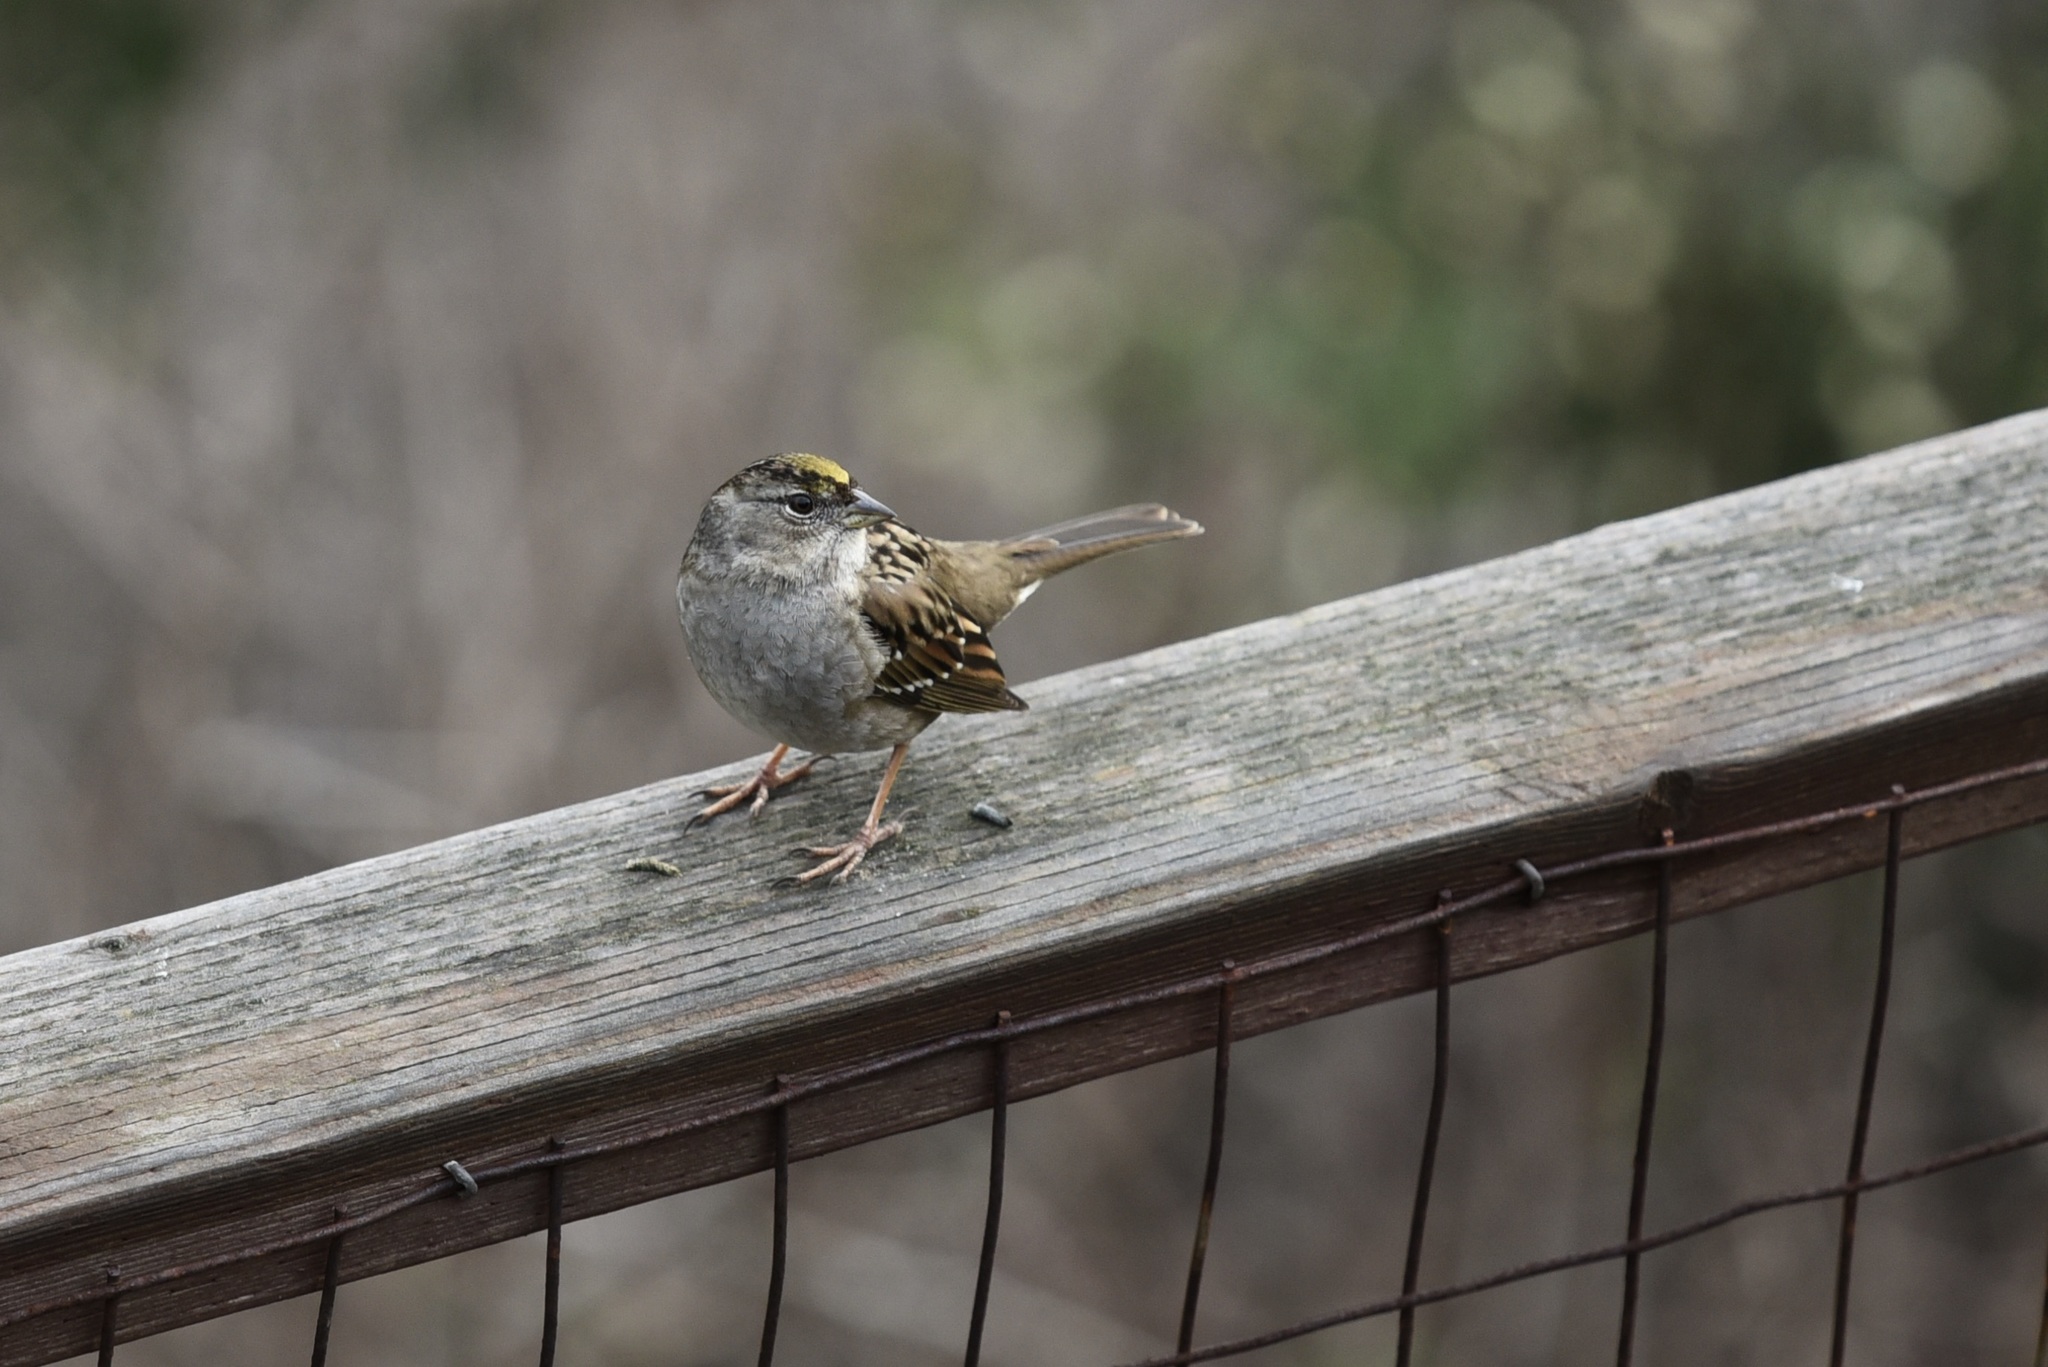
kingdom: Animalia
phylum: Chordata
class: Aves
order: Passeriformes
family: Passerellidae
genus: Zonotrichia
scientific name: Zonotrichia atricapilla
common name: Golden-crowned sparrow
